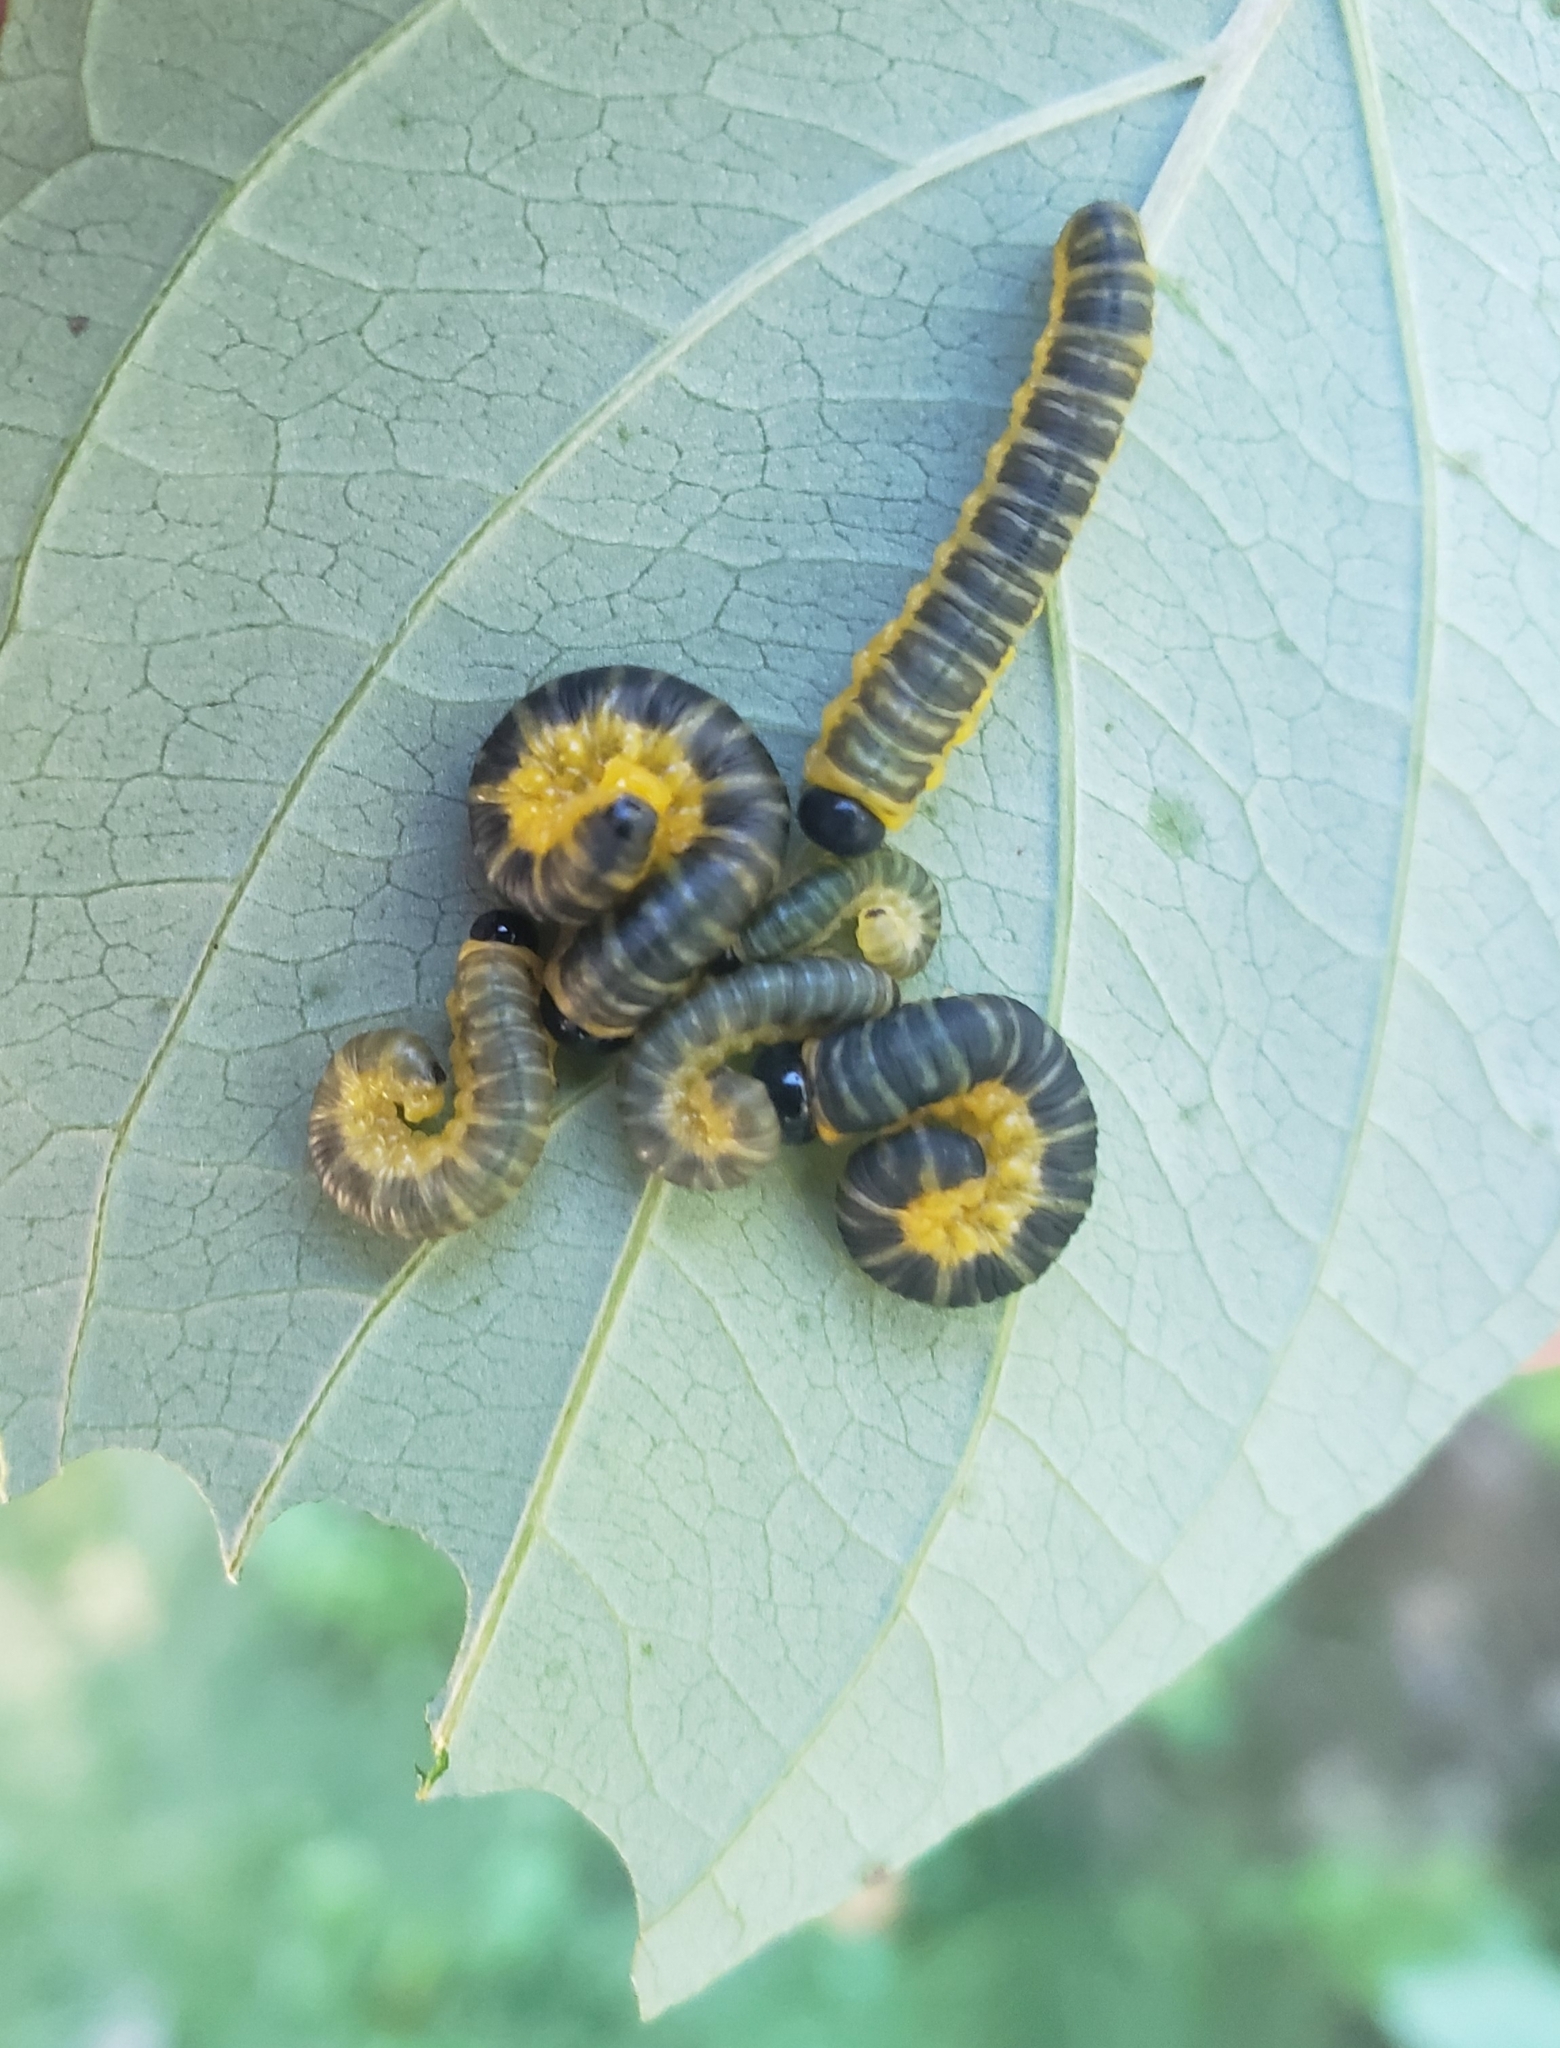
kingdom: Animalia
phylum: Arthropoda
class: Insecta
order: Hymenoptera
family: Tenthredinidae
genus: Macremphytus
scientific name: Macremphytus
